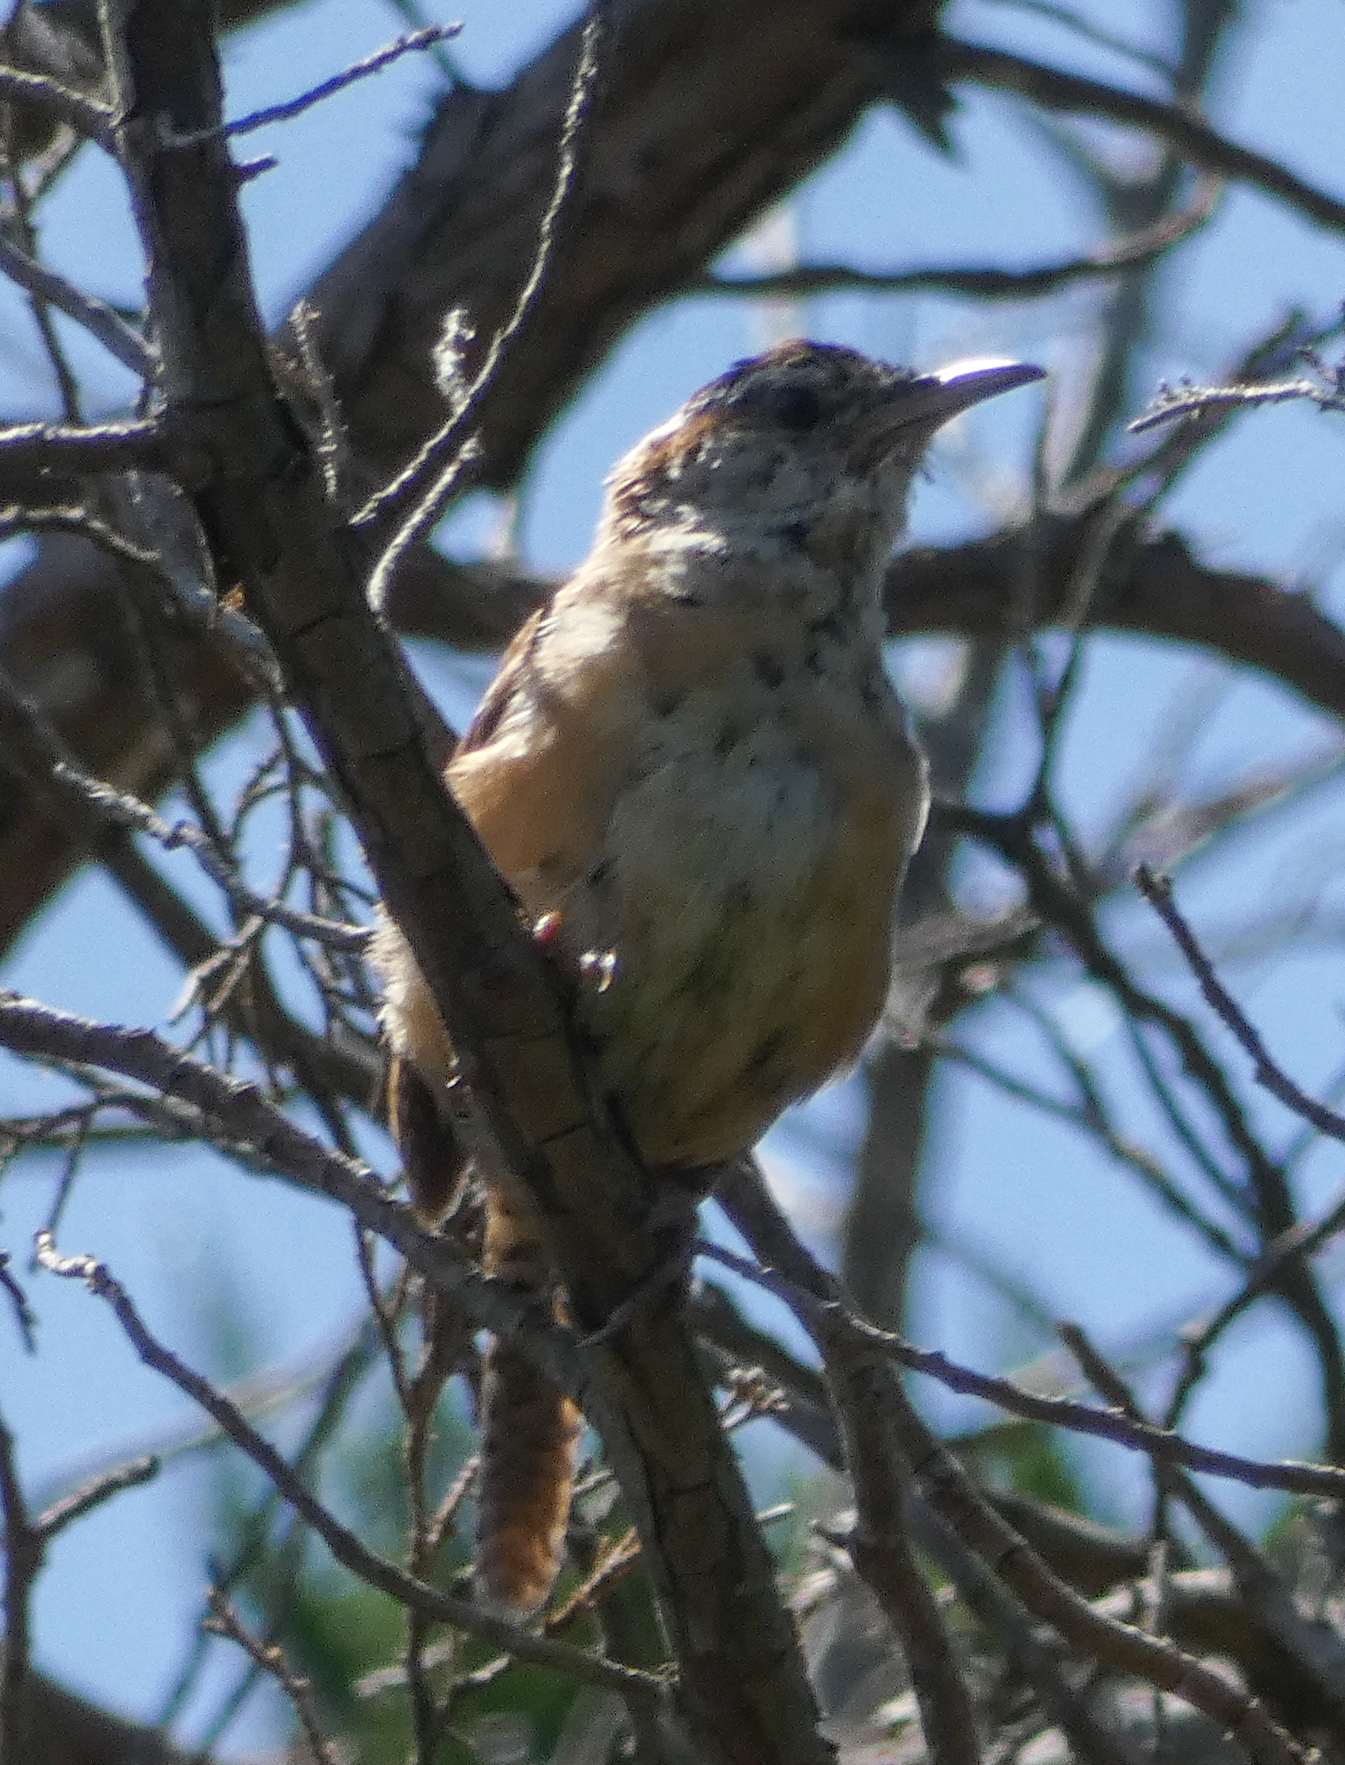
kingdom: Animalia
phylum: Chordata
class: Aves
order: Passeriformes
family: Troglodytidae
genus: Thryothorus
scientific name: Thryothorus ludovicianus
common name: Carolina wren
